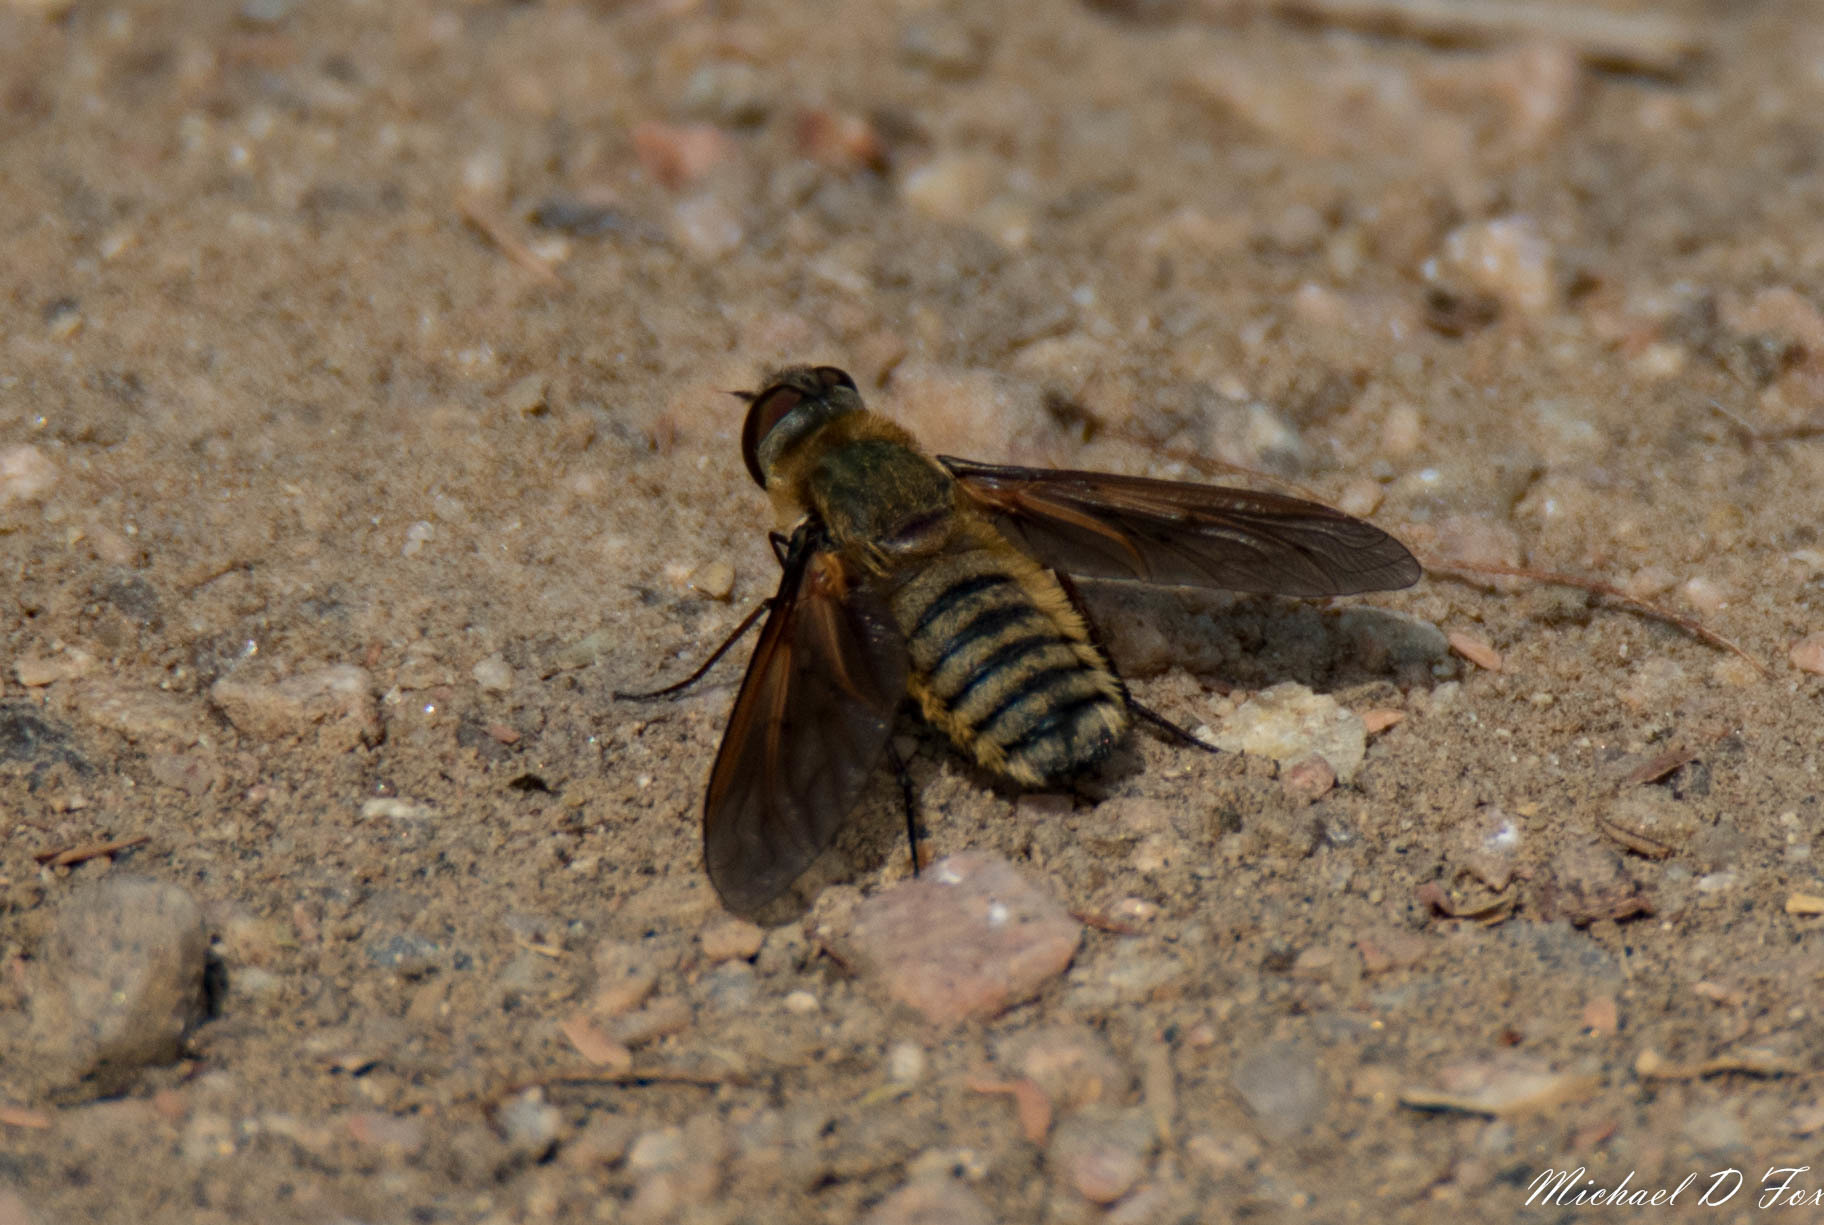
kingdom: Animalia
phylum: Arthropoda
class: Insecta
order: Diptera
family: Bombyliidae
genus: Poecilanthrax
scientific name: Poecilanthrax lucifer
